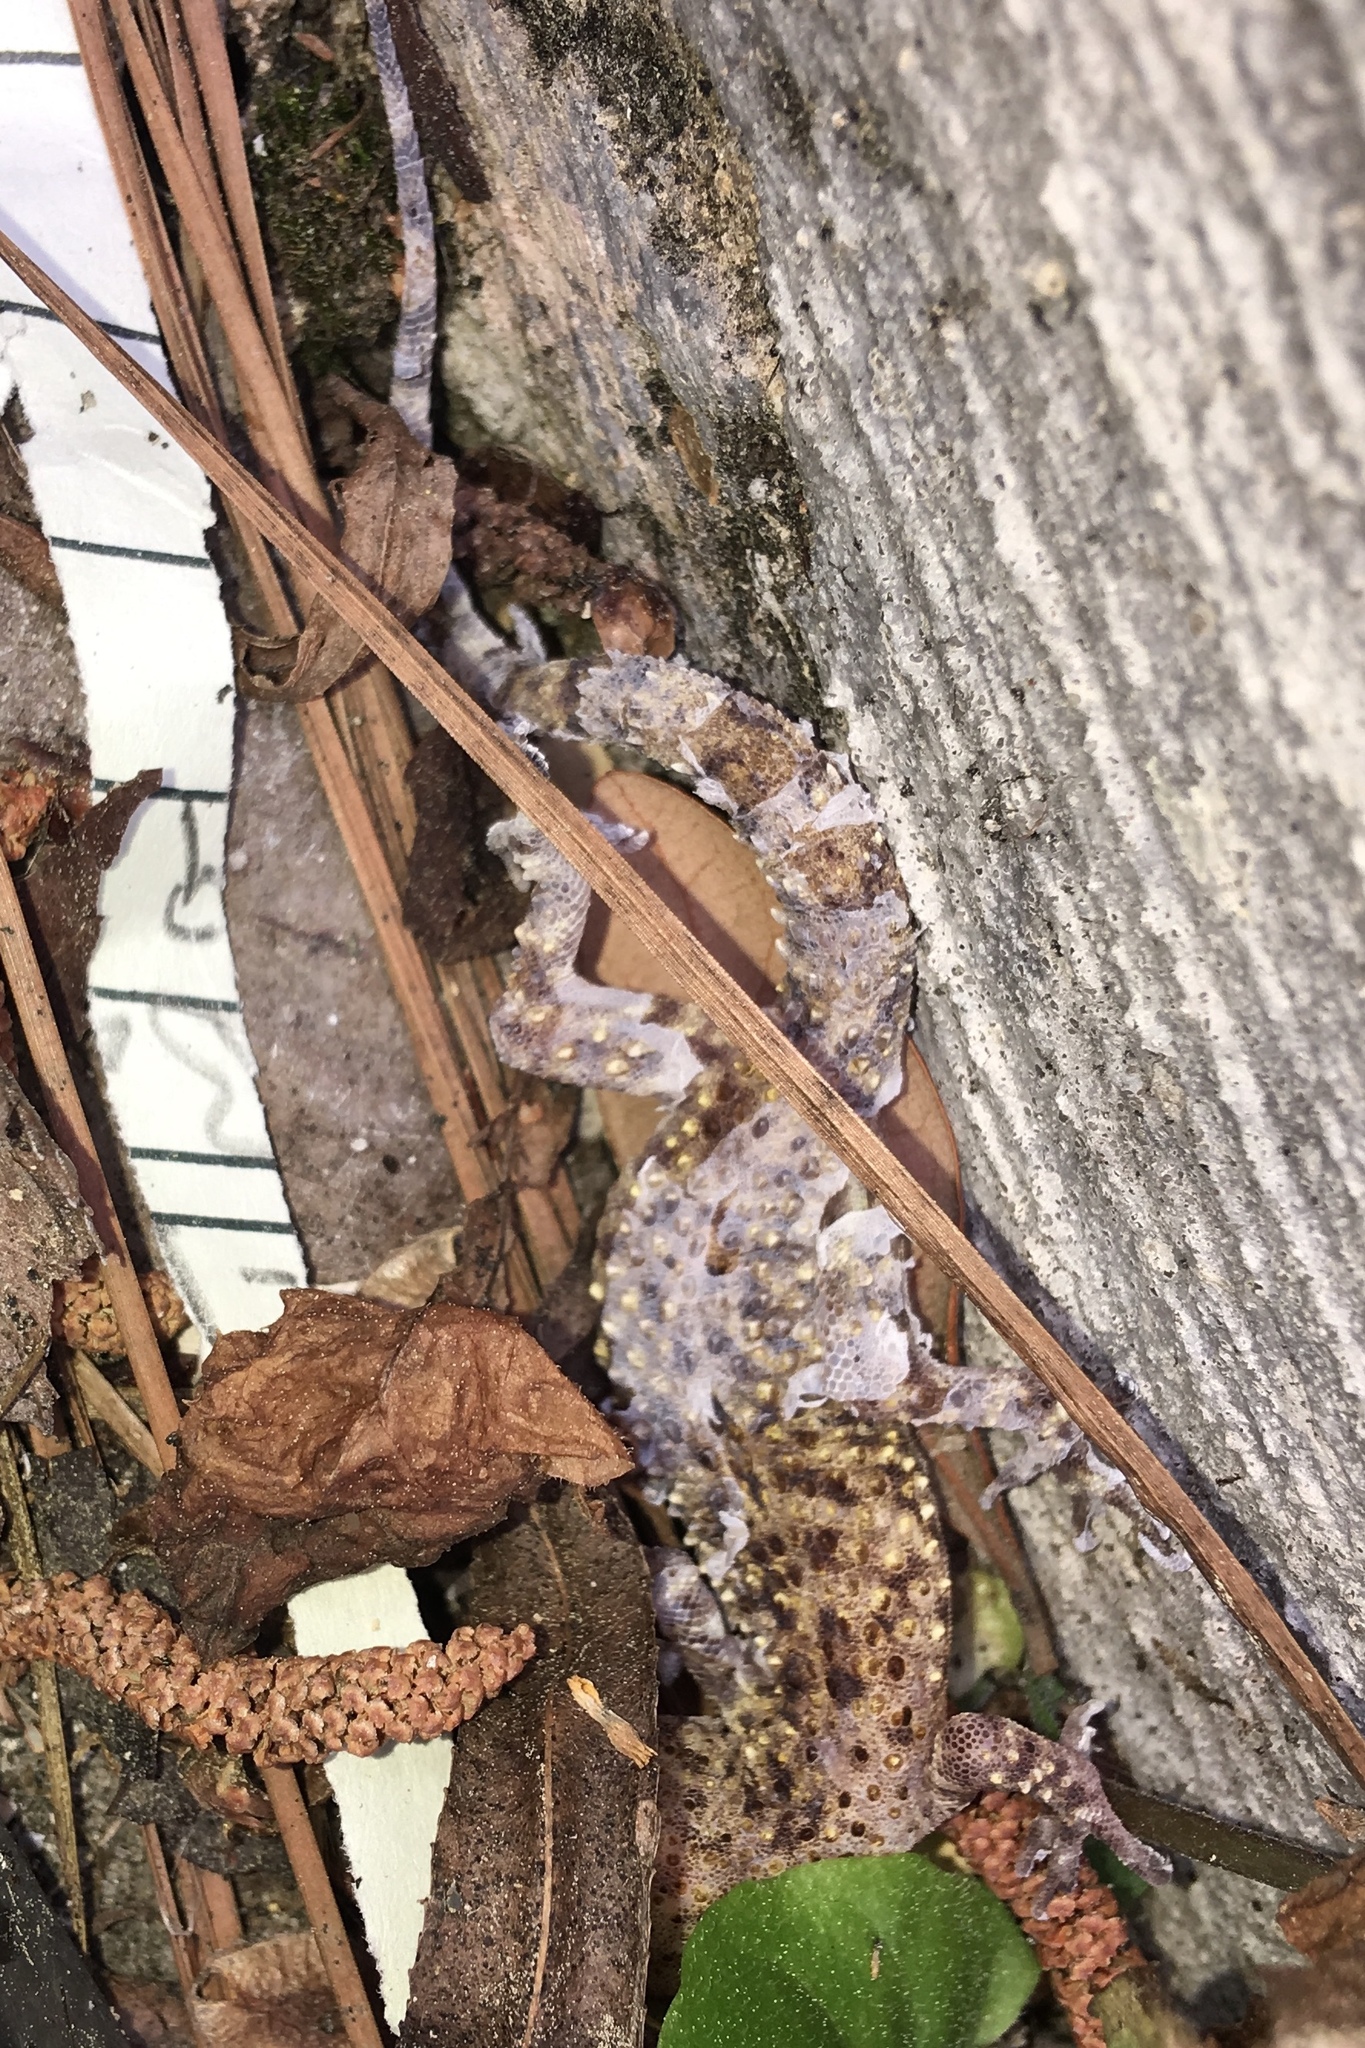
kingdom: Animalia
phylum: Chordata
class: Squamata
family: Gekkonidae
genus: Hemidactylus
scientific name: Hemidactylus turcicus
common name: Turkish gecko
